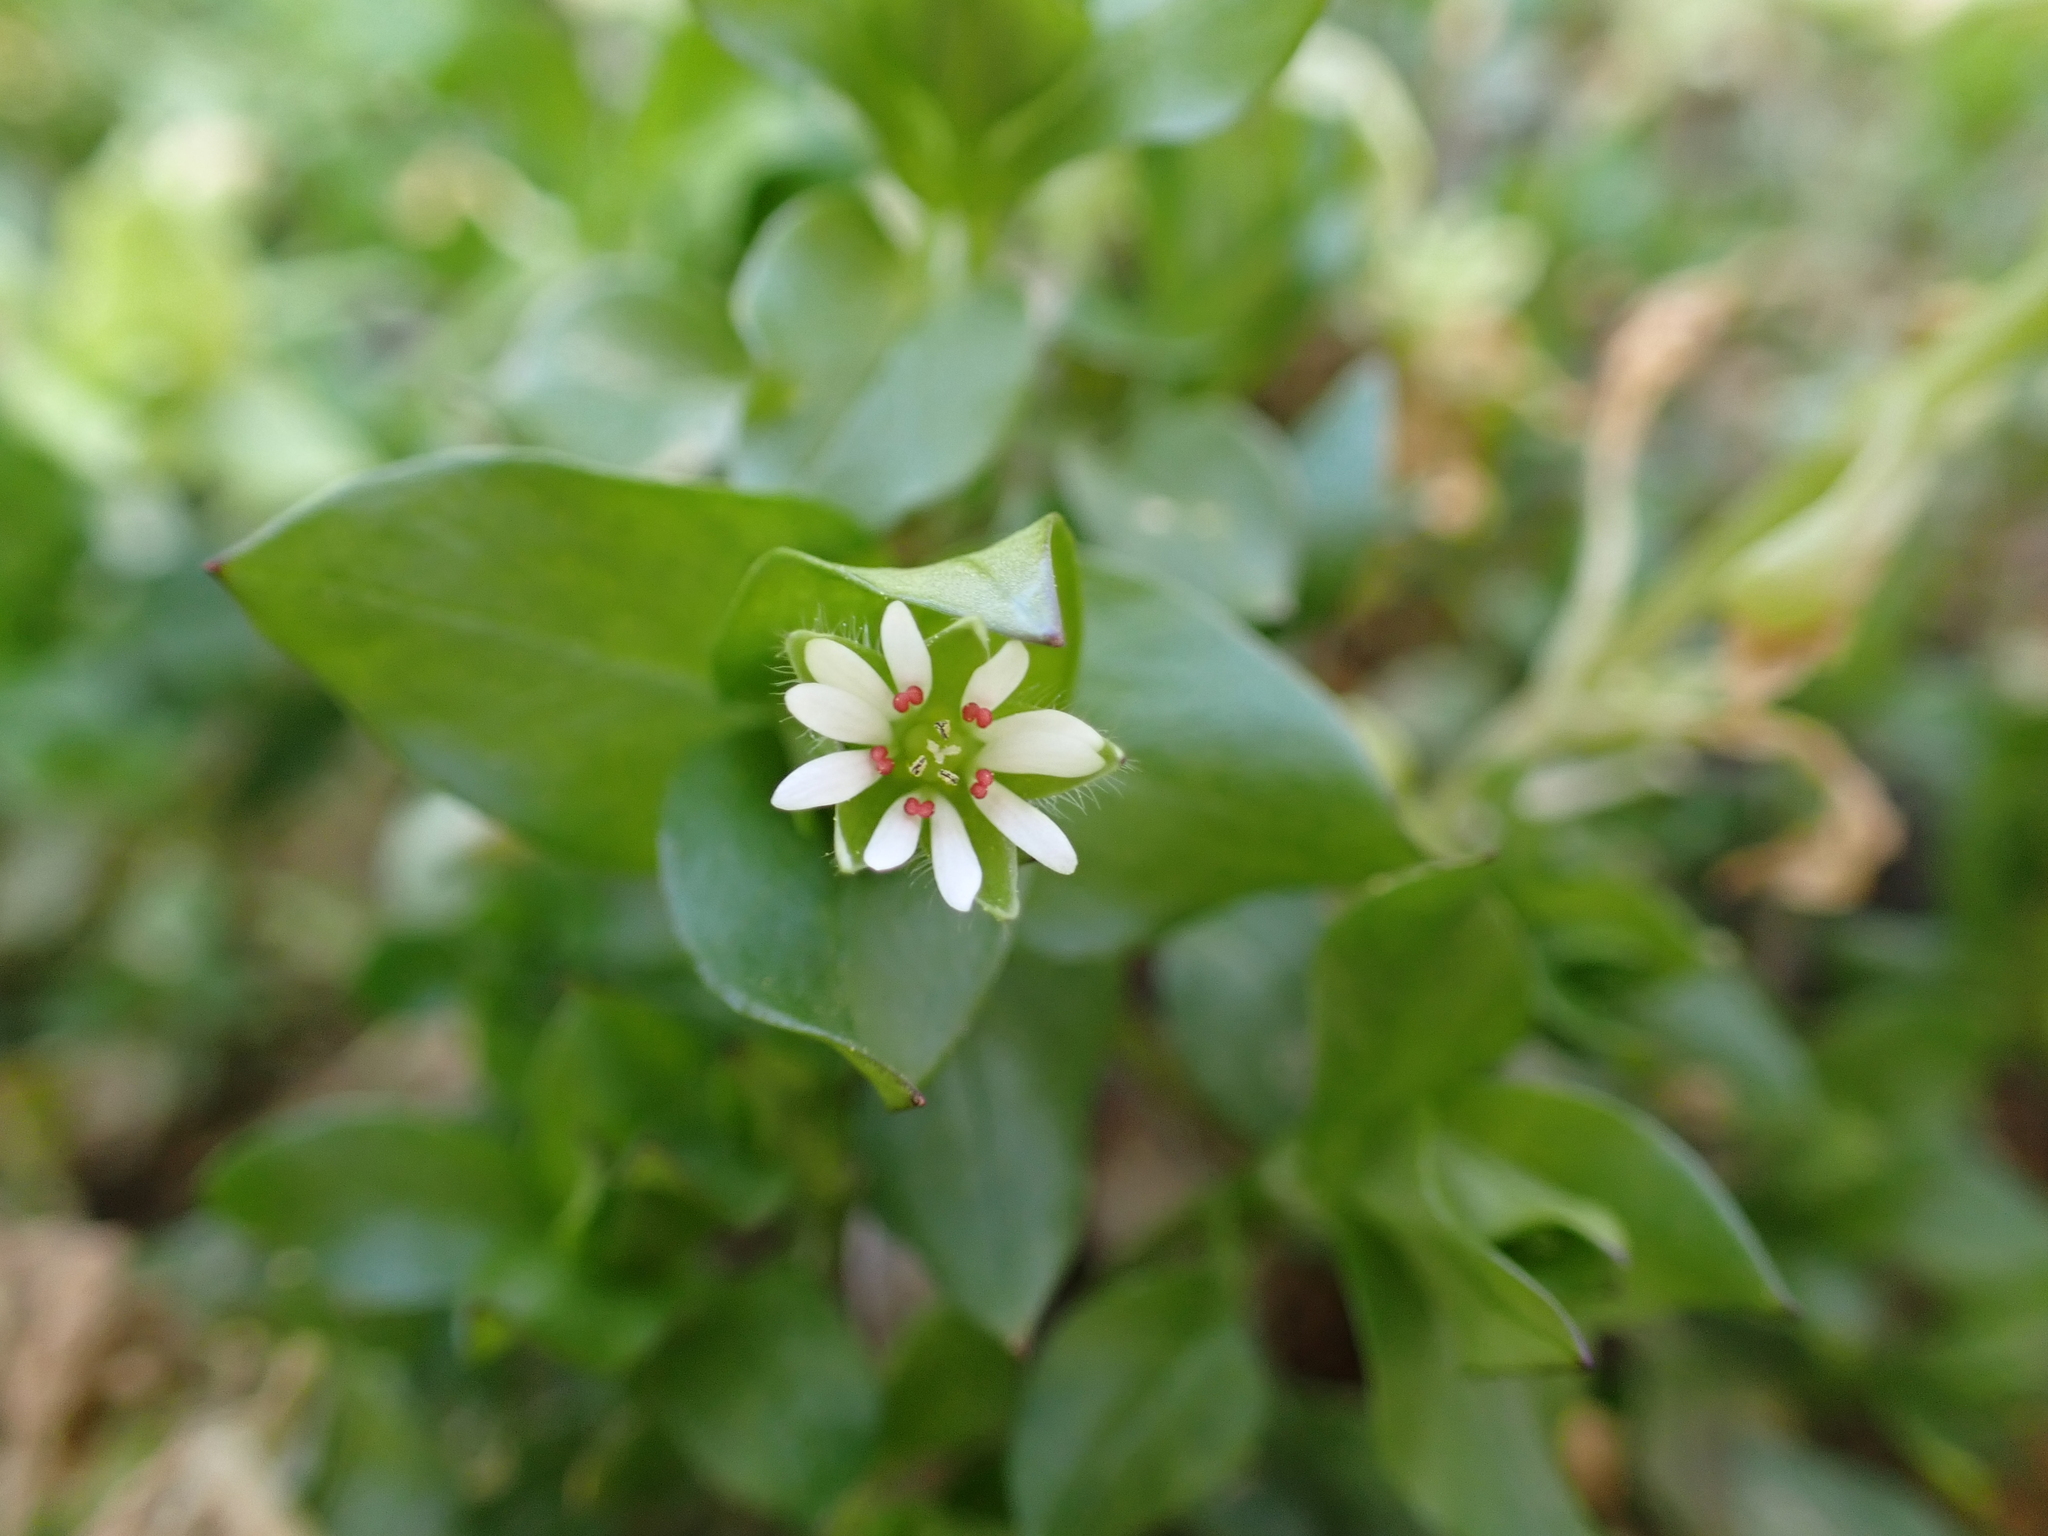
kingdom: Plantae
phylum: Tracheophyta
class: Magnoliopsida
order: Caryophyllales
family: Caryophyllaceae
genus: Stellaria
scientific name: Stellaria media
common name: Common chickweed
